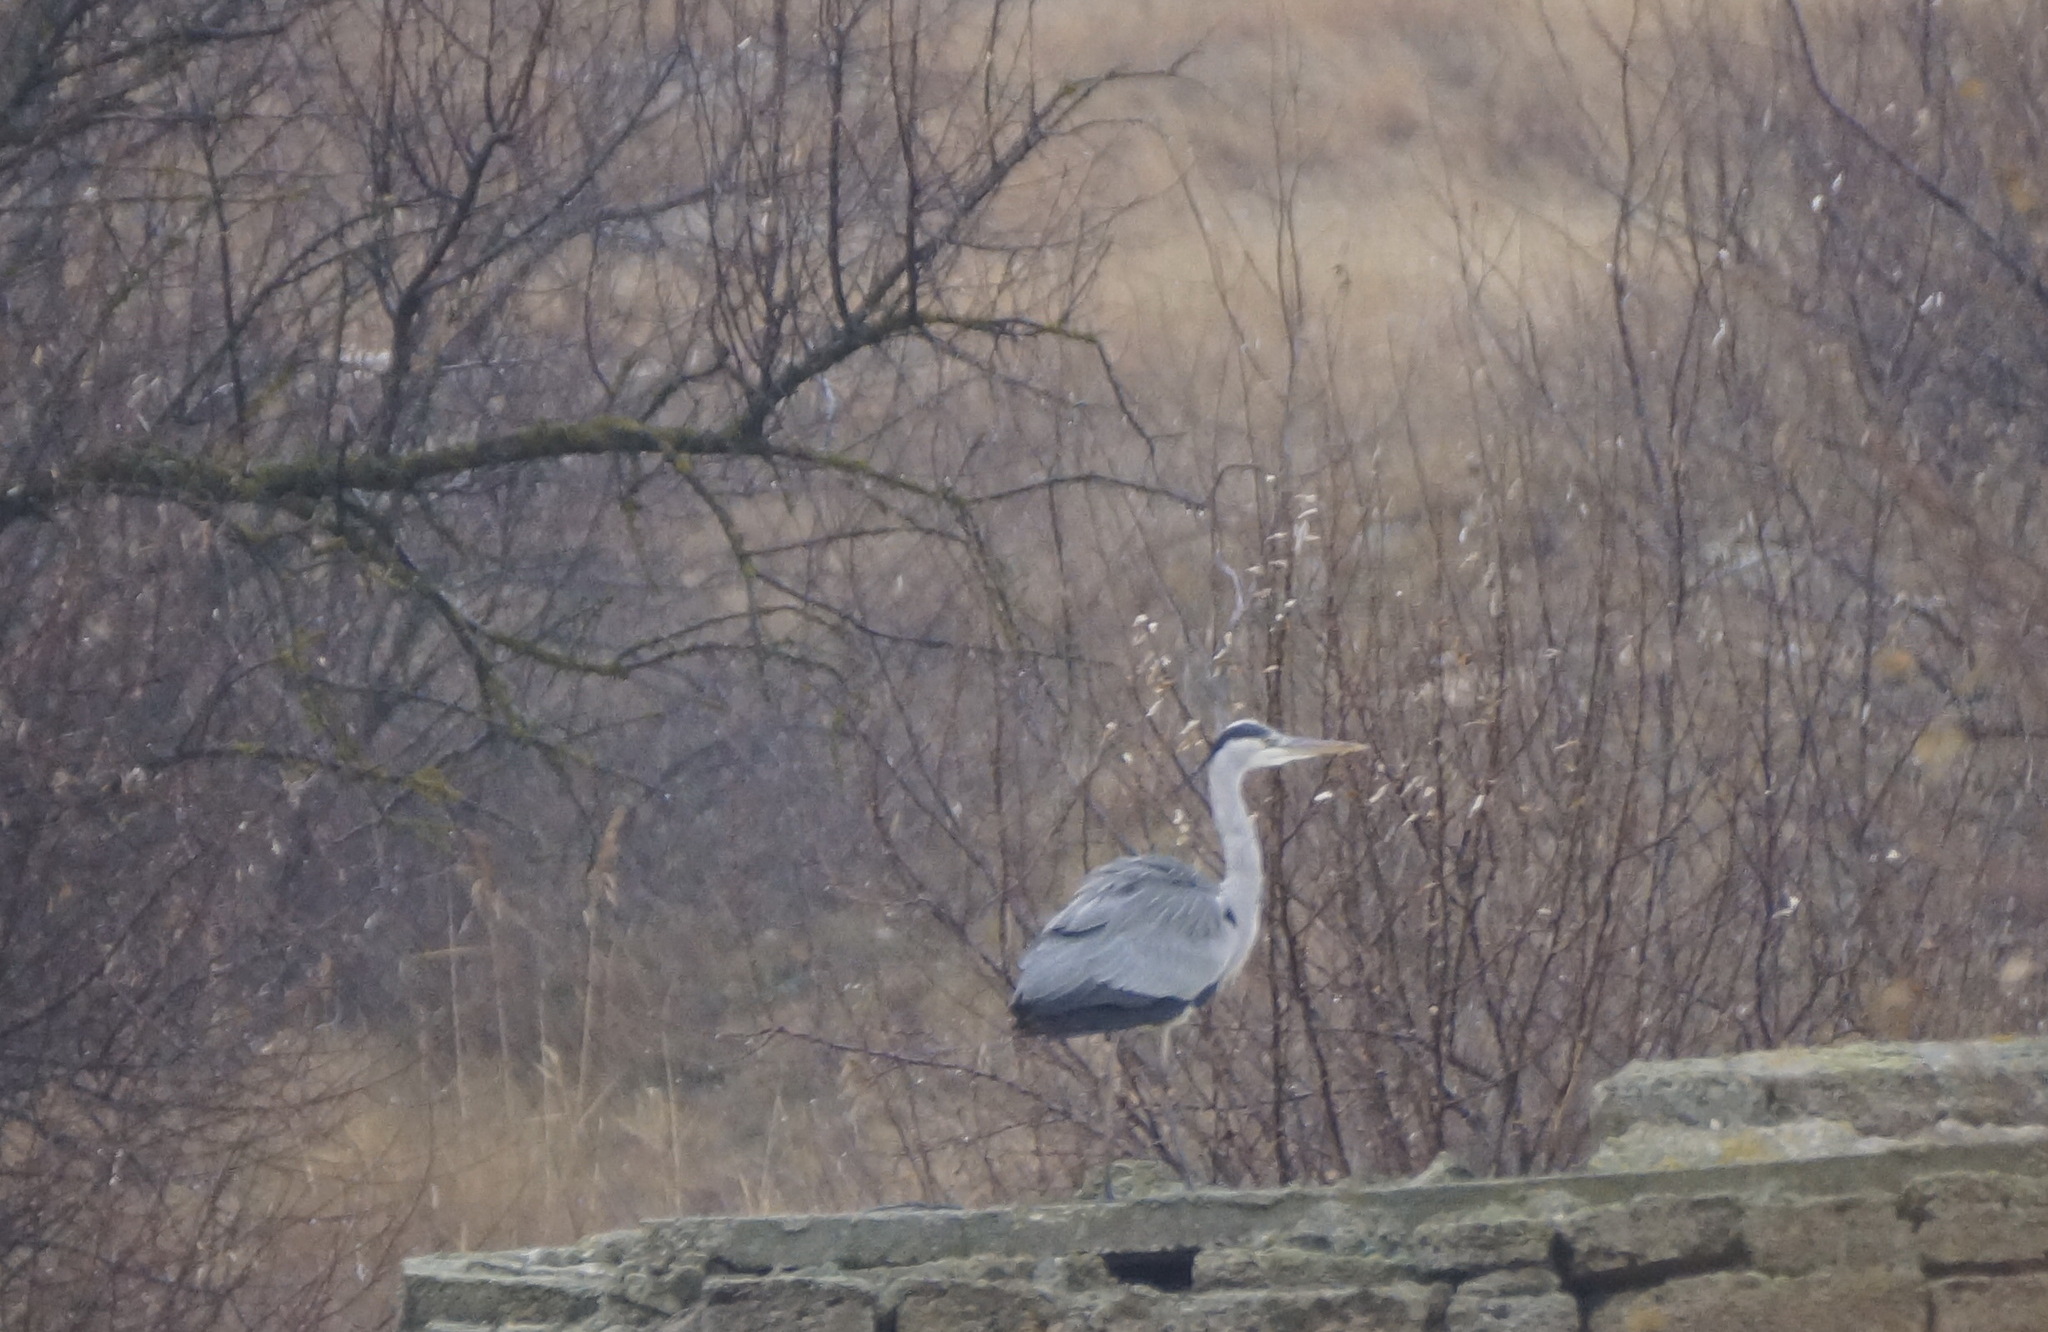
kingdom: Animalia
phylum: Chordata
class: Aves
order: Pelecaniformes
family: Ardeidae
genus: Ardea
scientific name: Ardea cinerea
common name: Grey heron
